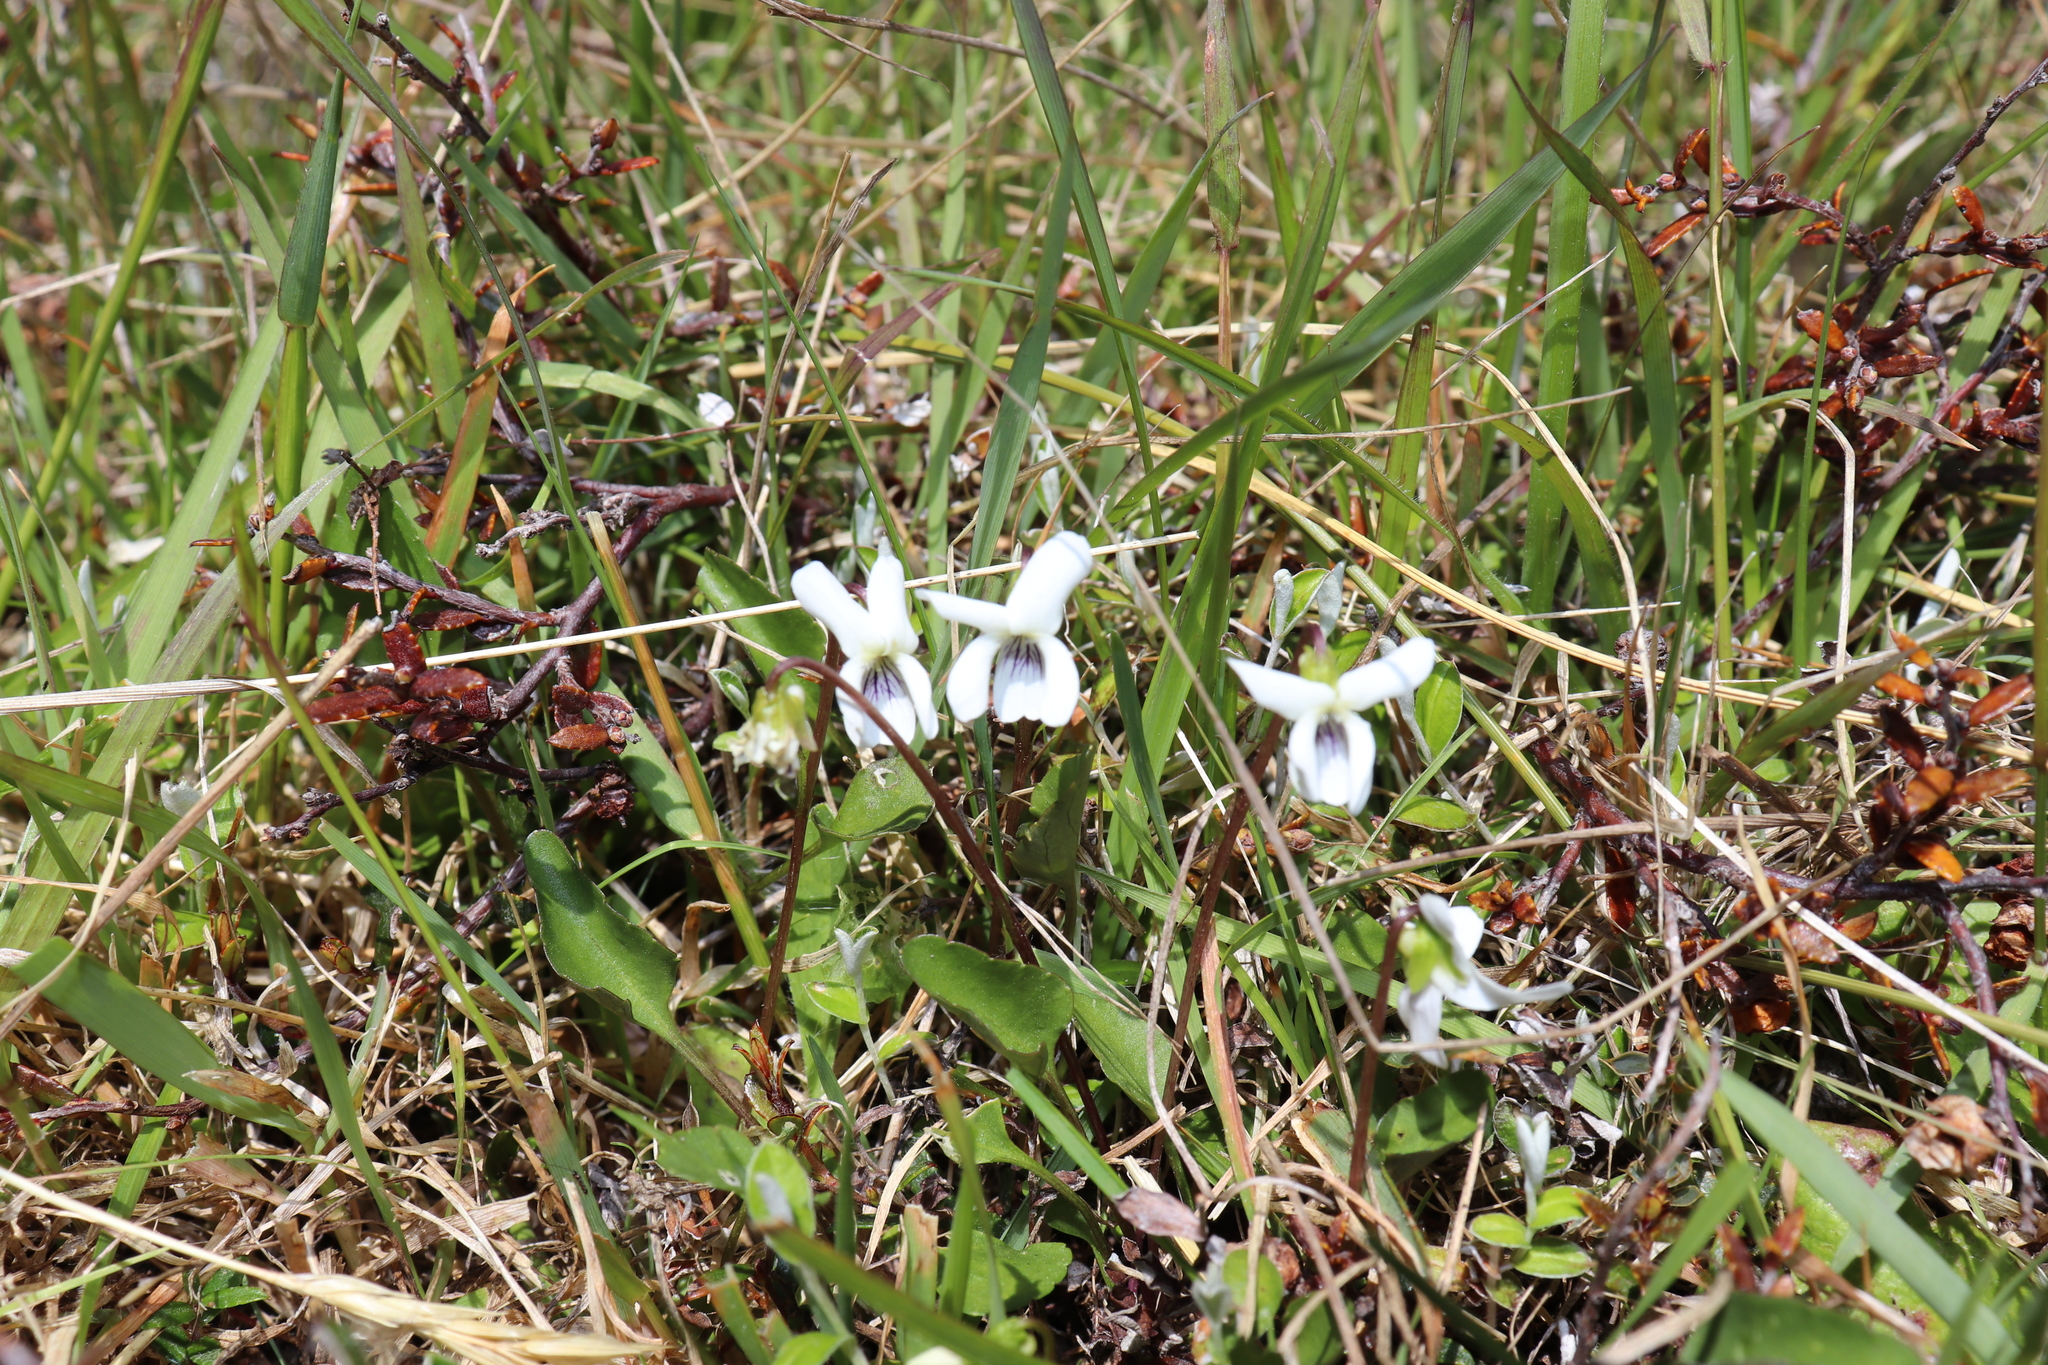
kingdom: Plantae
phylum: Tracheophyta
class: Magnoliopsida
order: Malpighiales
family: Violaceae
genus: Viola
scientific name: Viola cunninghamii
